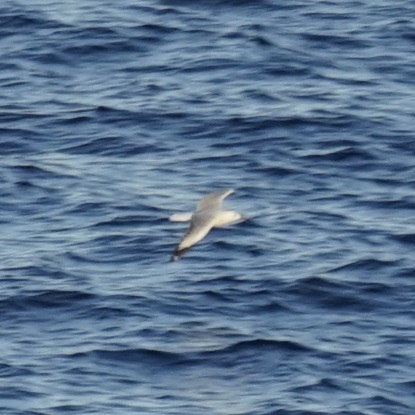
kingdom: Animalia
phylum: Chordata
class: Aves
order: Charadriiformes
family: Laridae
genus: Chroicocephalus
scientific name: Chroicocephalus novaehollandiae
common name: Silver gull
